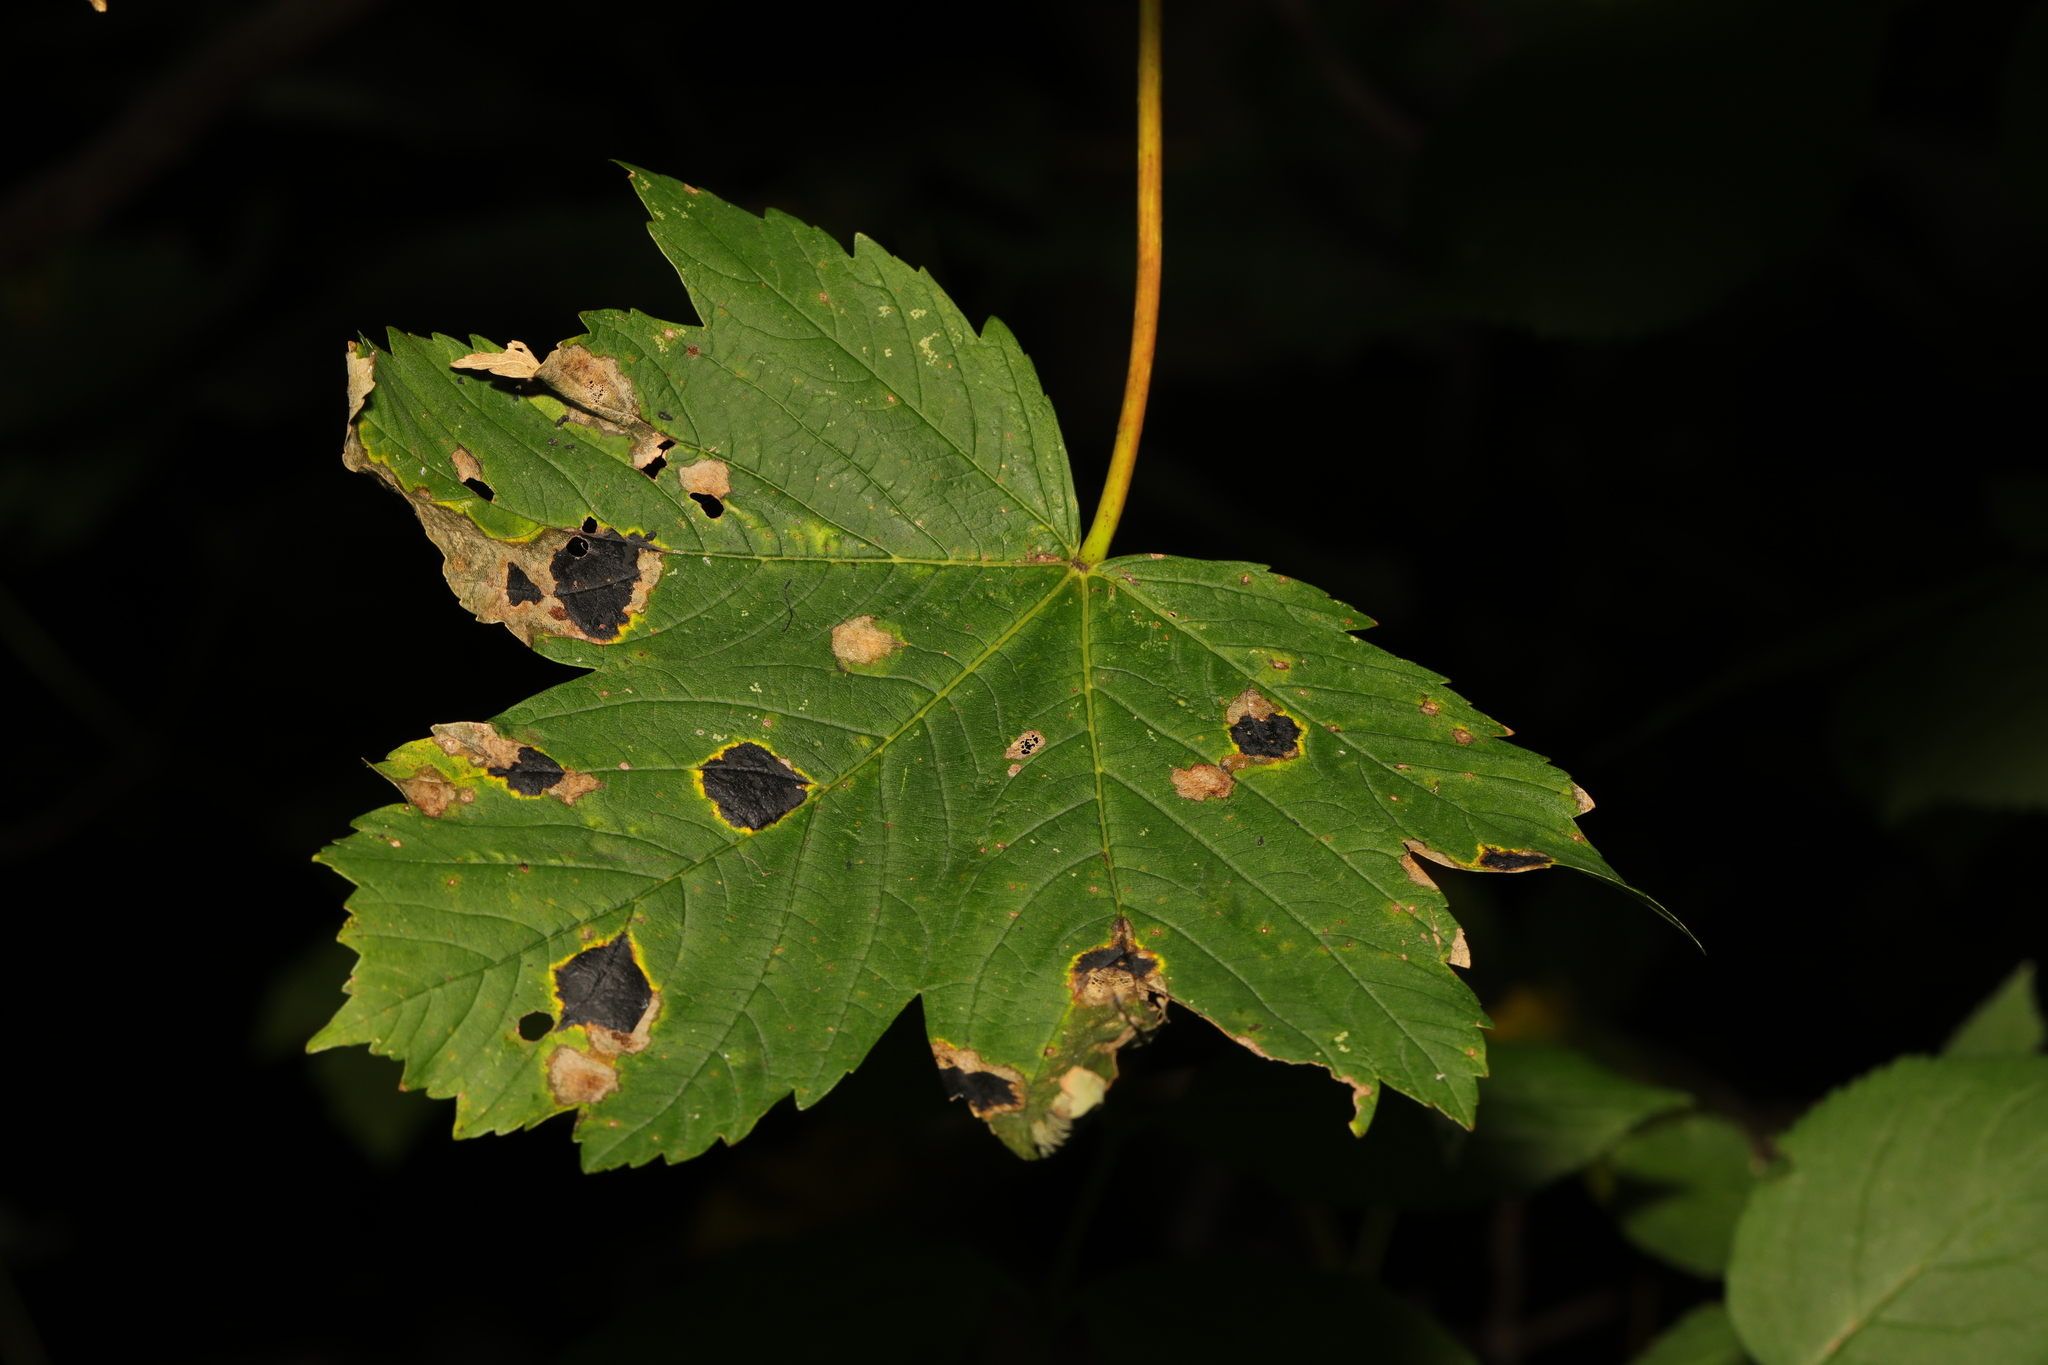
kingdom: Fungi
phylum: Ascomycota
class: Leotiomycetes
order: Rhytismatales
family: Rhytismataceae
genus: Rhytisma
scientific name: Rhytisma acerinum
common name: European tar spot
